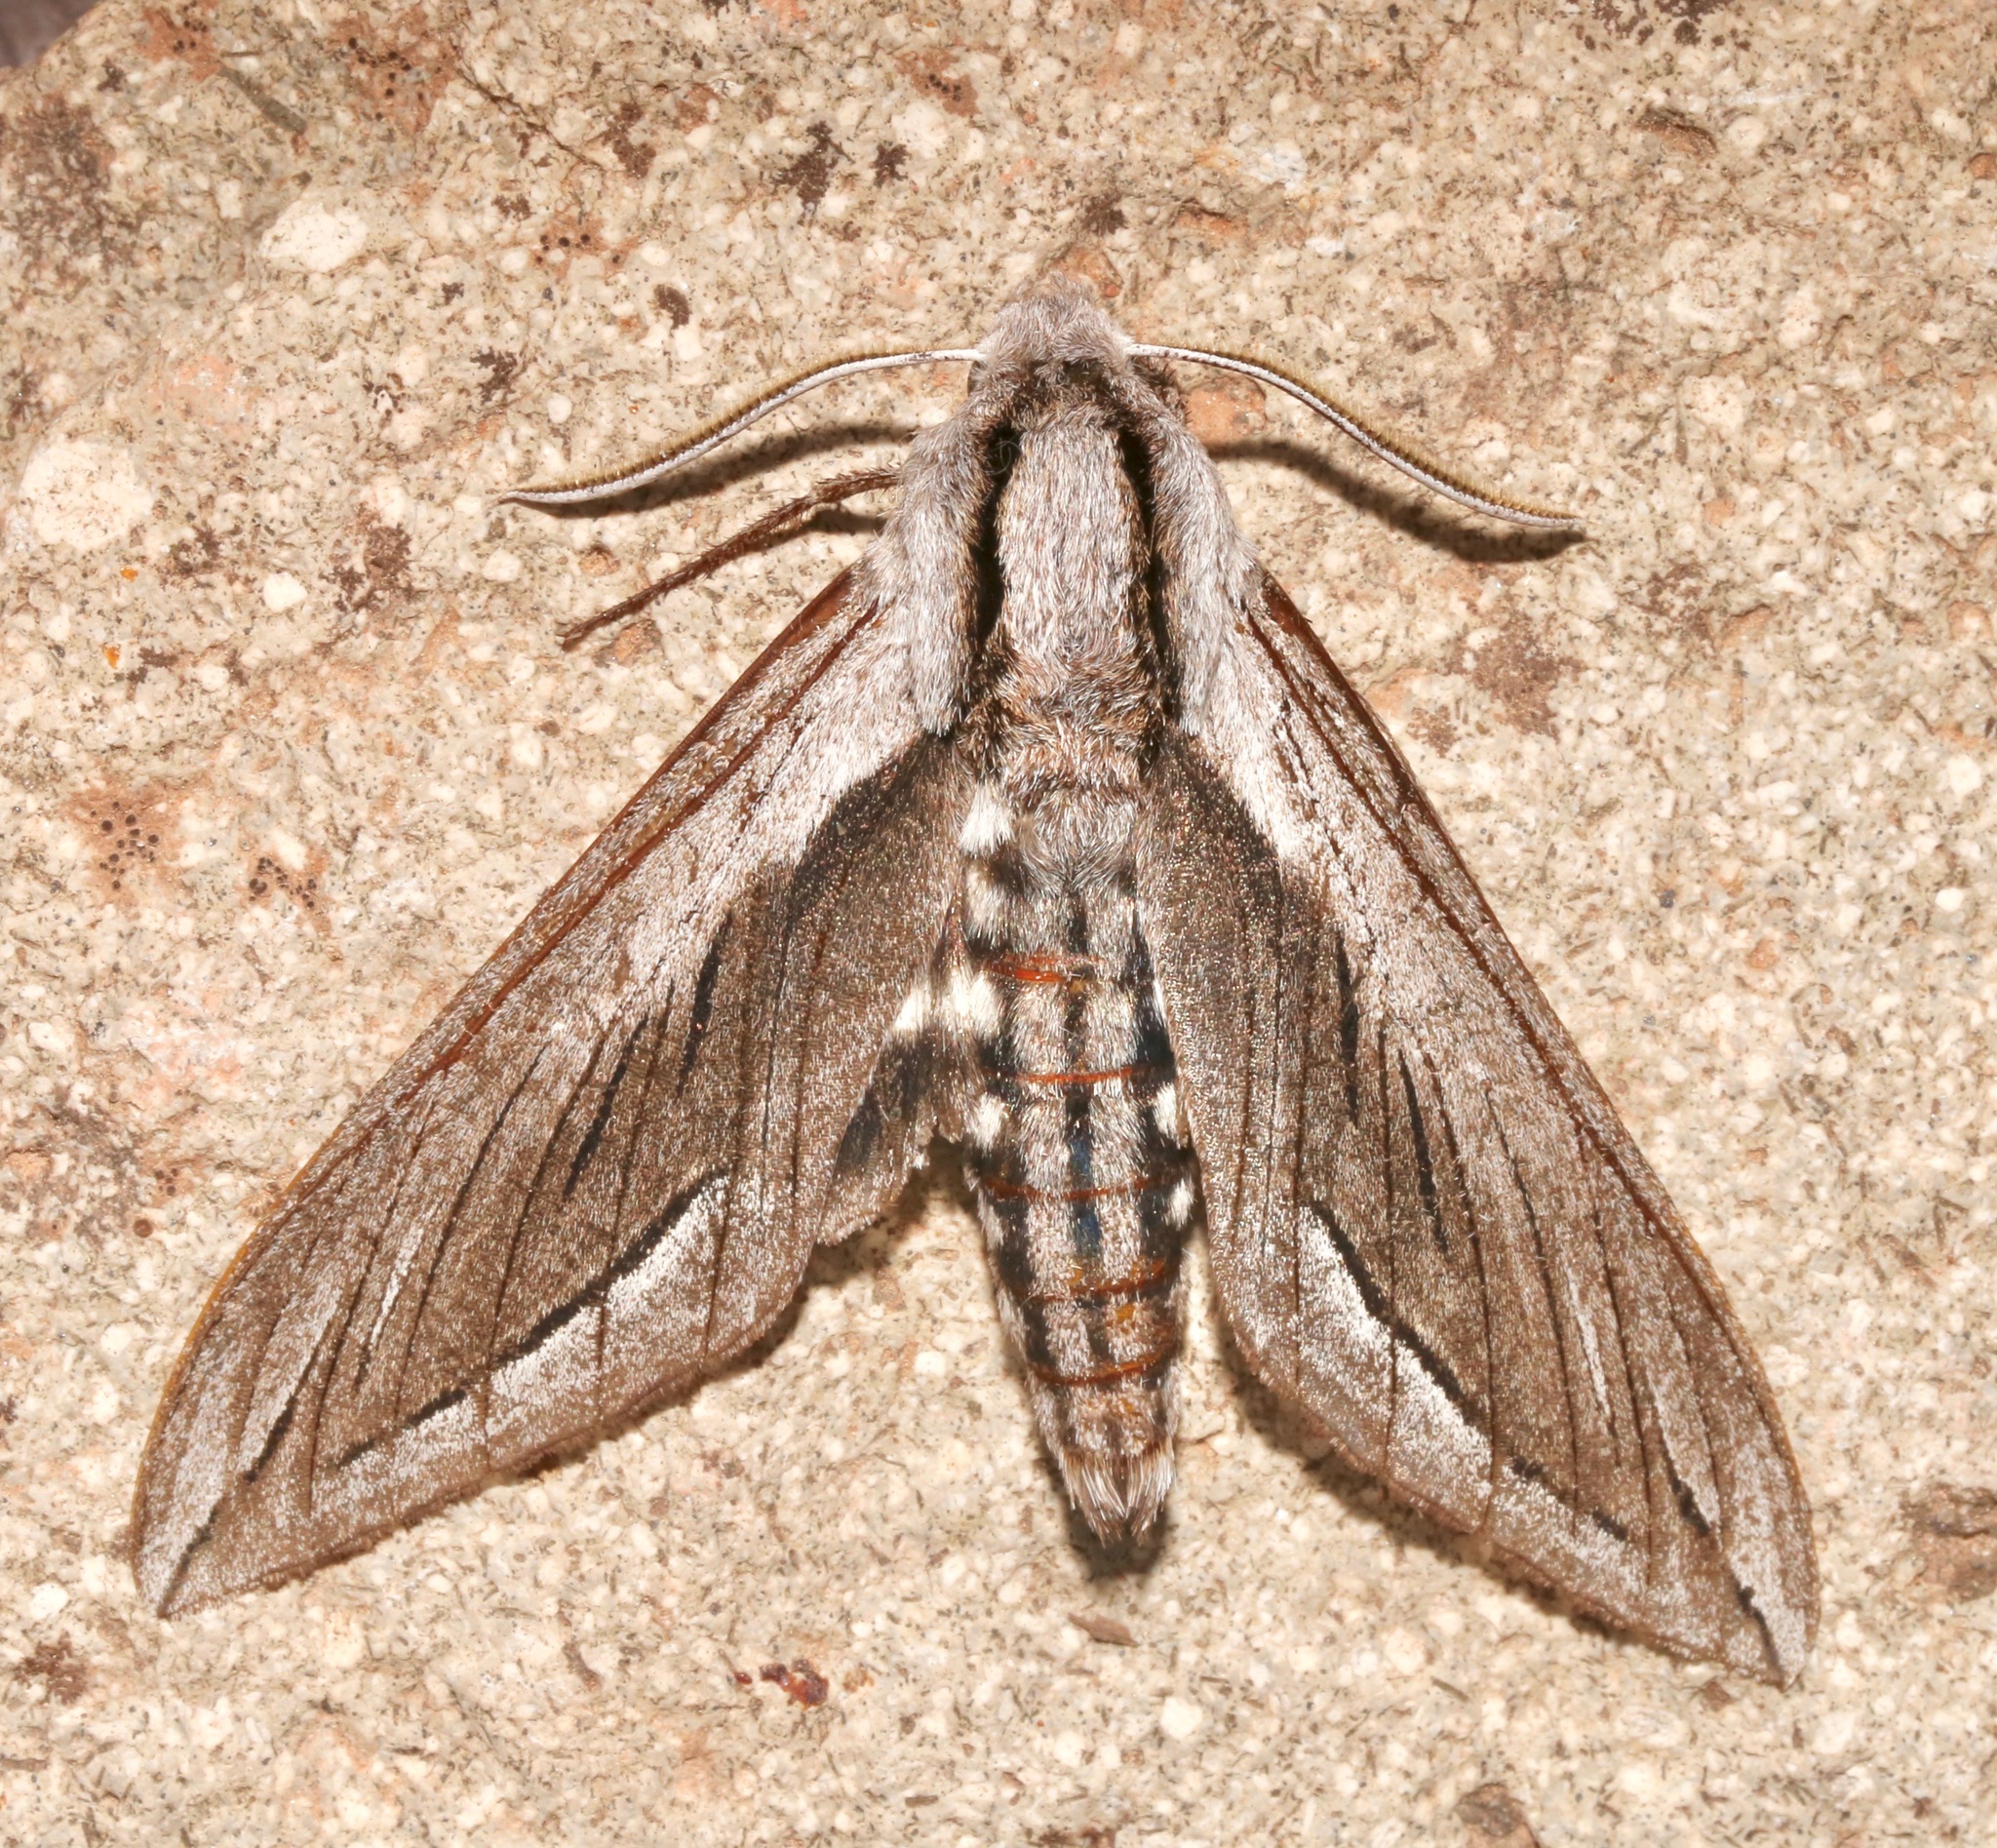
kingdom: Animalia
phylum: Arthropoda
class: Insecta
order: Lepidoptera
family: Sphingidae
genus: Sphinx
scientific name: Sphinx vashti
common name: Snowberry sphinx
